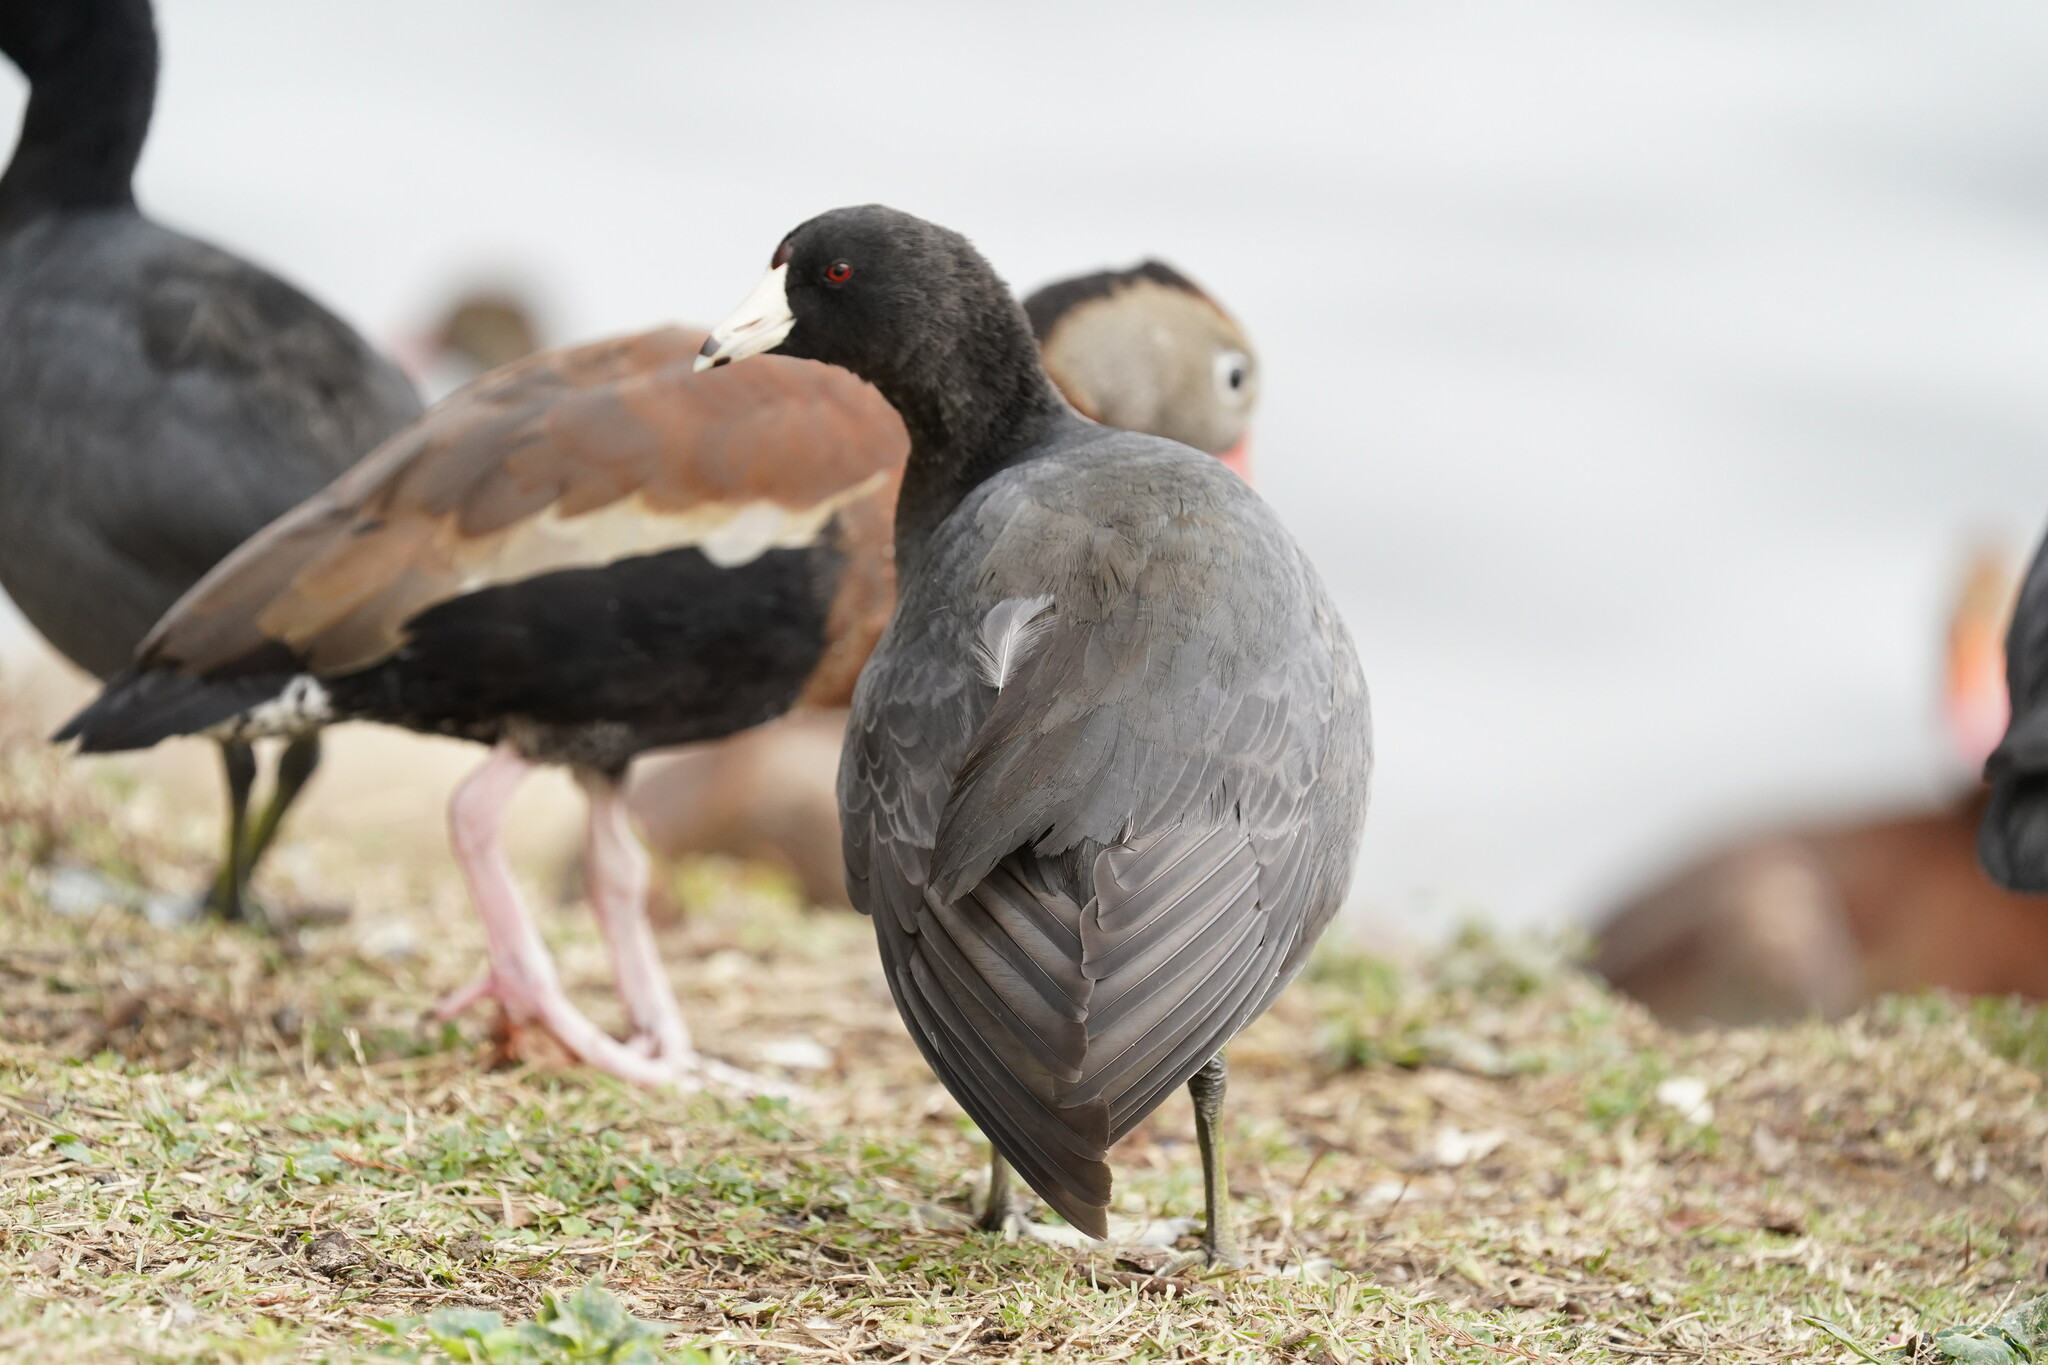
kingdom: Animalia
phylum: Chordata
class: Aves
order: Gruiformes
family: Rallidae
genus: Fulica
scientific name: Fulica americana
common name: American coot
